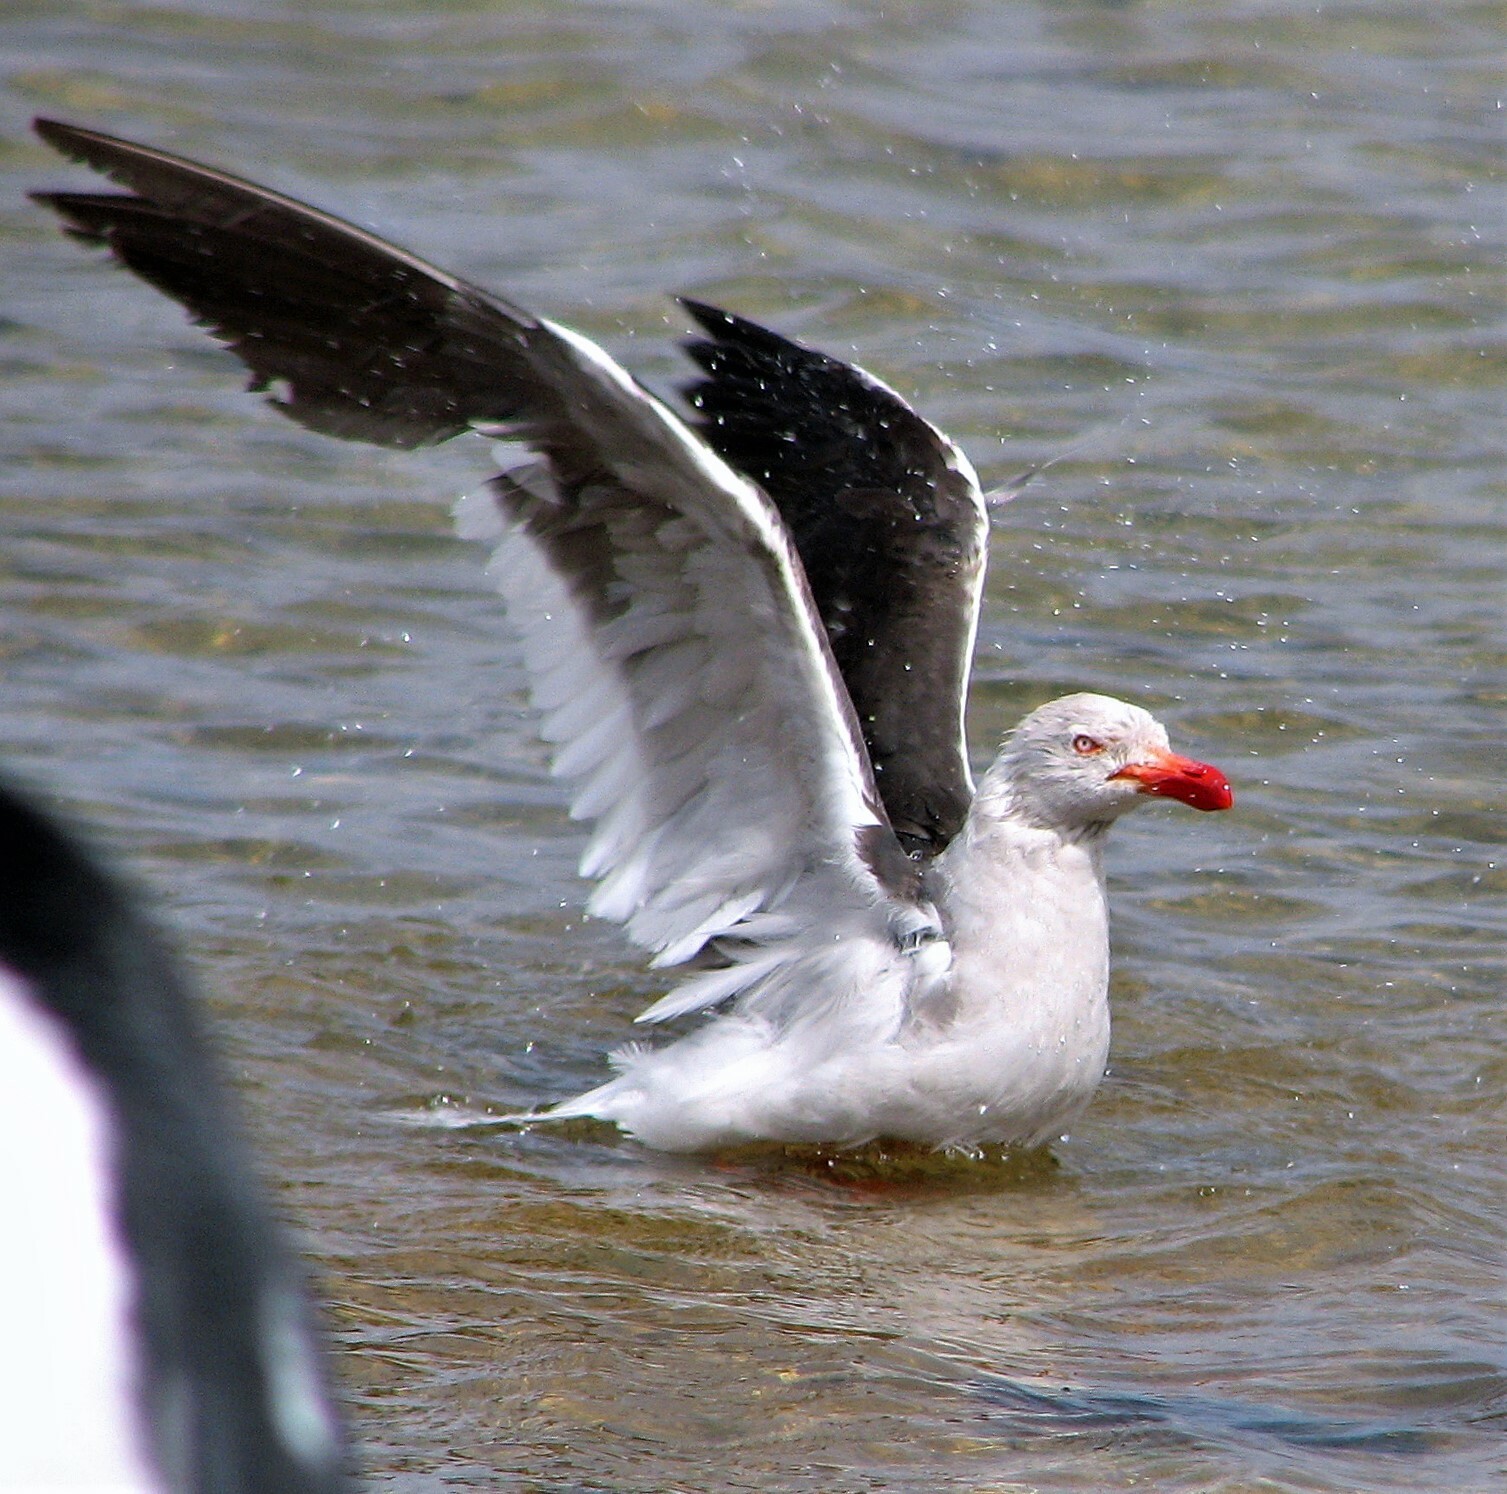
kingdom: Animalia
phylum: Chordata
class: Aves
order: Charadriiformes
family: Laridae
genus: Leucophaeus
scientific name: Leucophaeus scoresbii
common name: Dolphin gull
